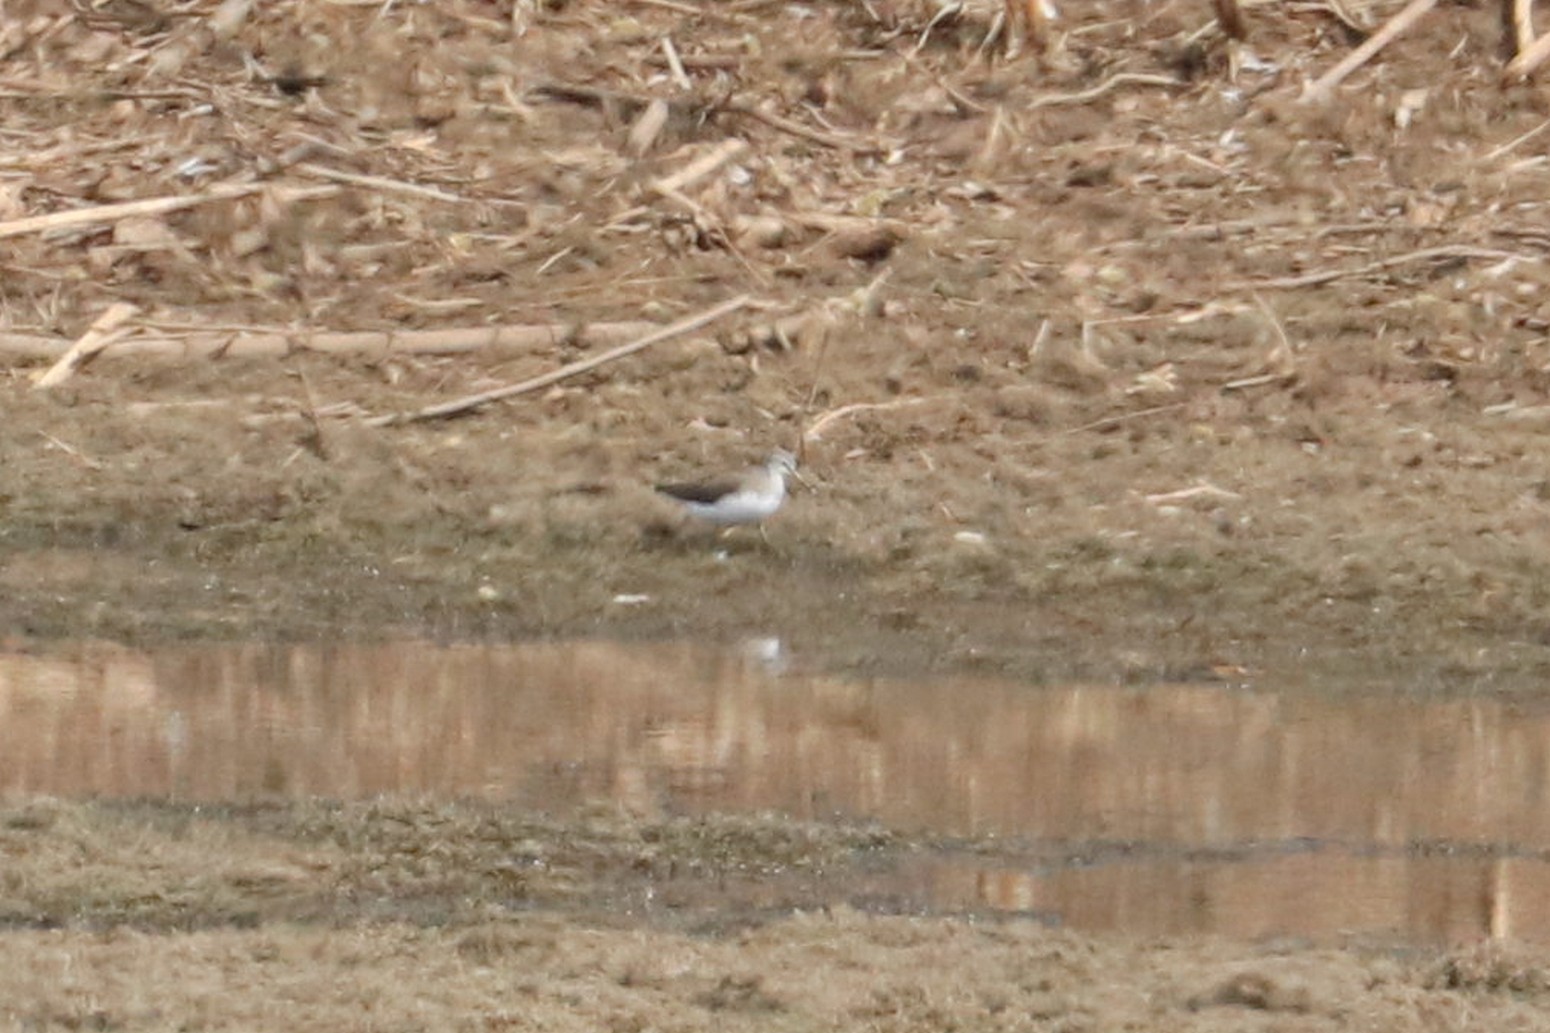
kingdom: Animalia
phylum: Chordata
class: Aves
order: Charadriiformes
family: Scolopacidae
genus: Tringa
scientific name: Tringa ochropus
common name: Green sandpiper
